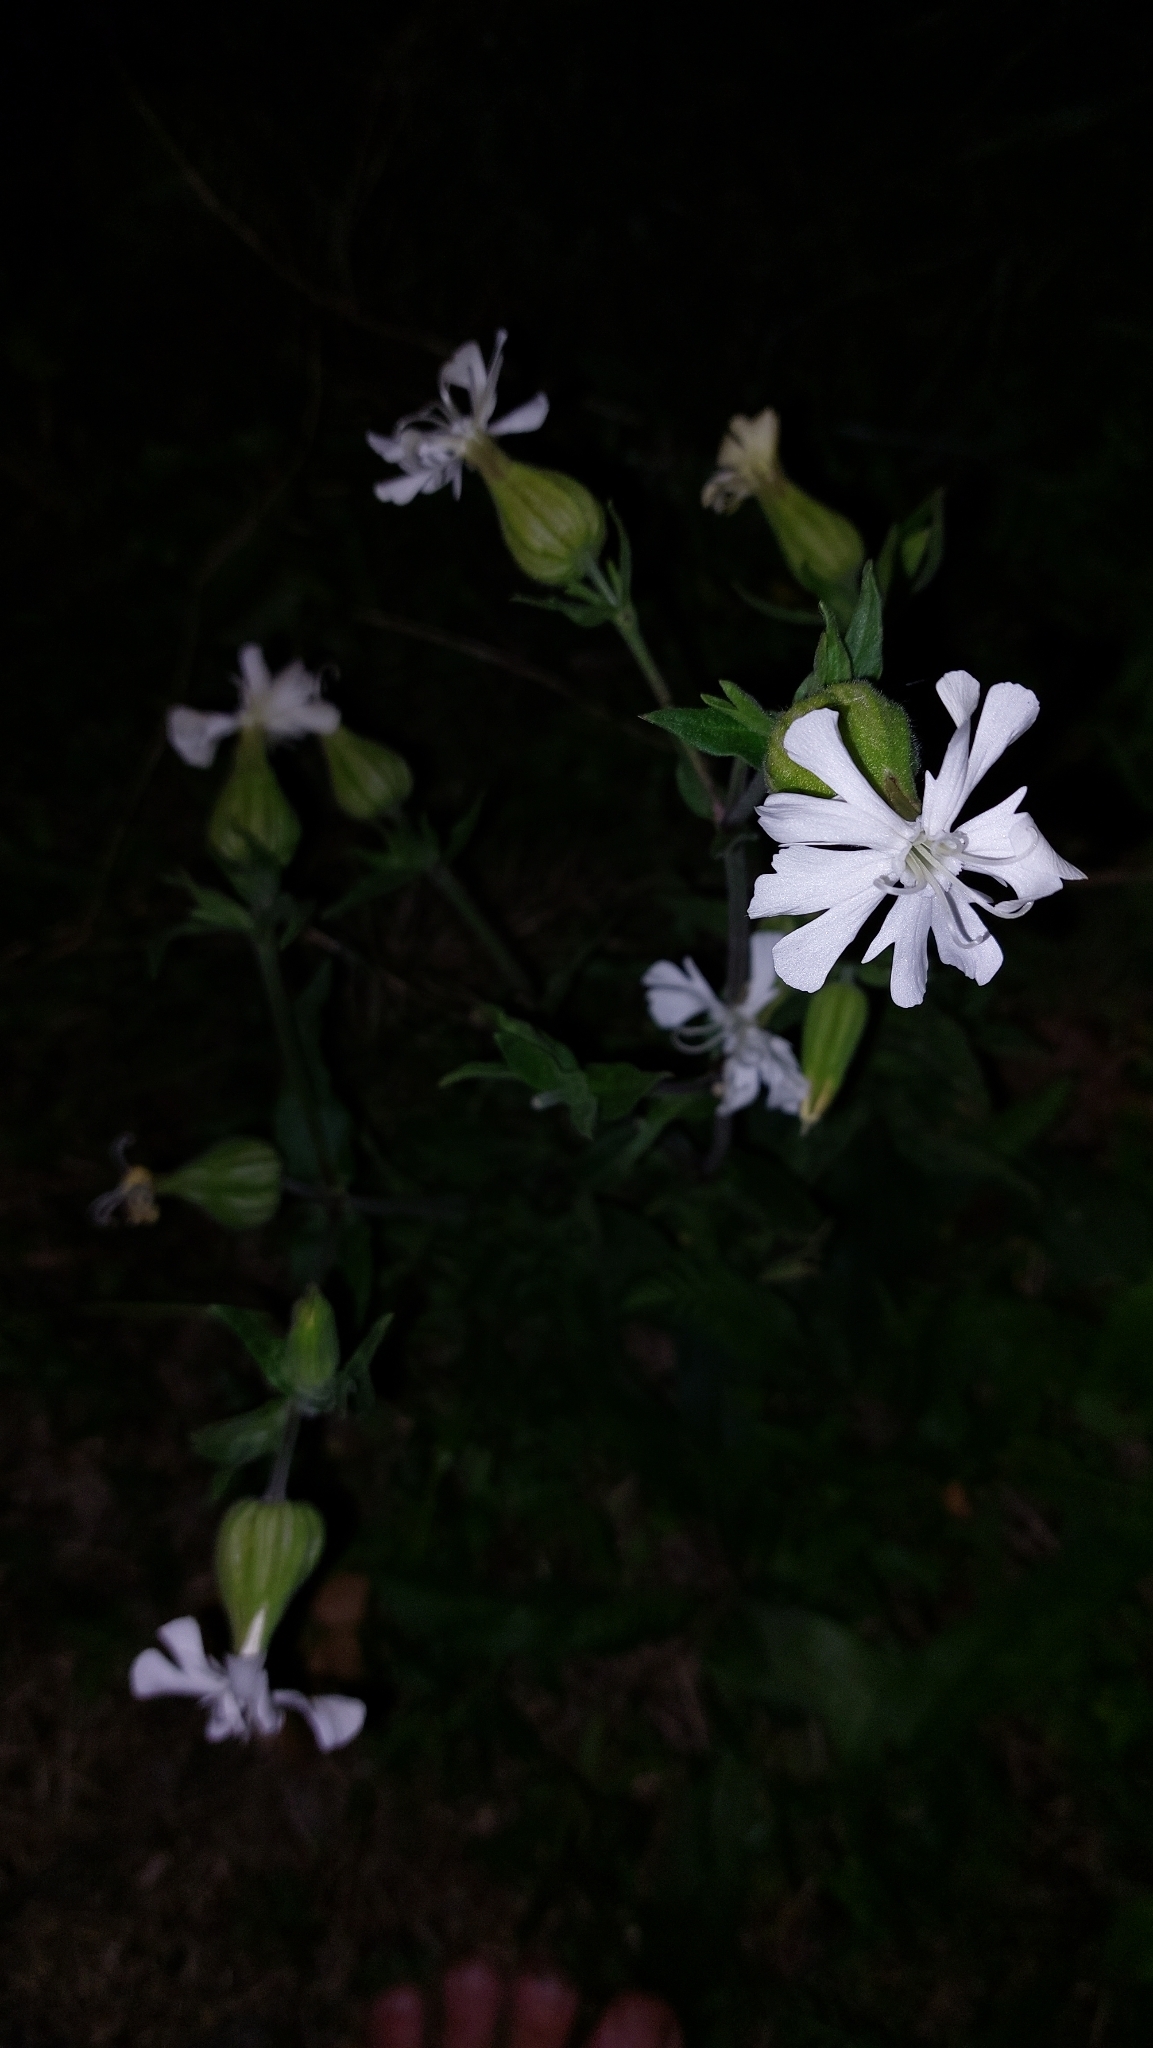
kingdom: Plantae
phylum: Tracheophyta
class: Magnoliopsida
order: Caryophyllales
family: Caryophyllaceae
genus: Silene
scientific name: Silene latifolia
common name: White campion
